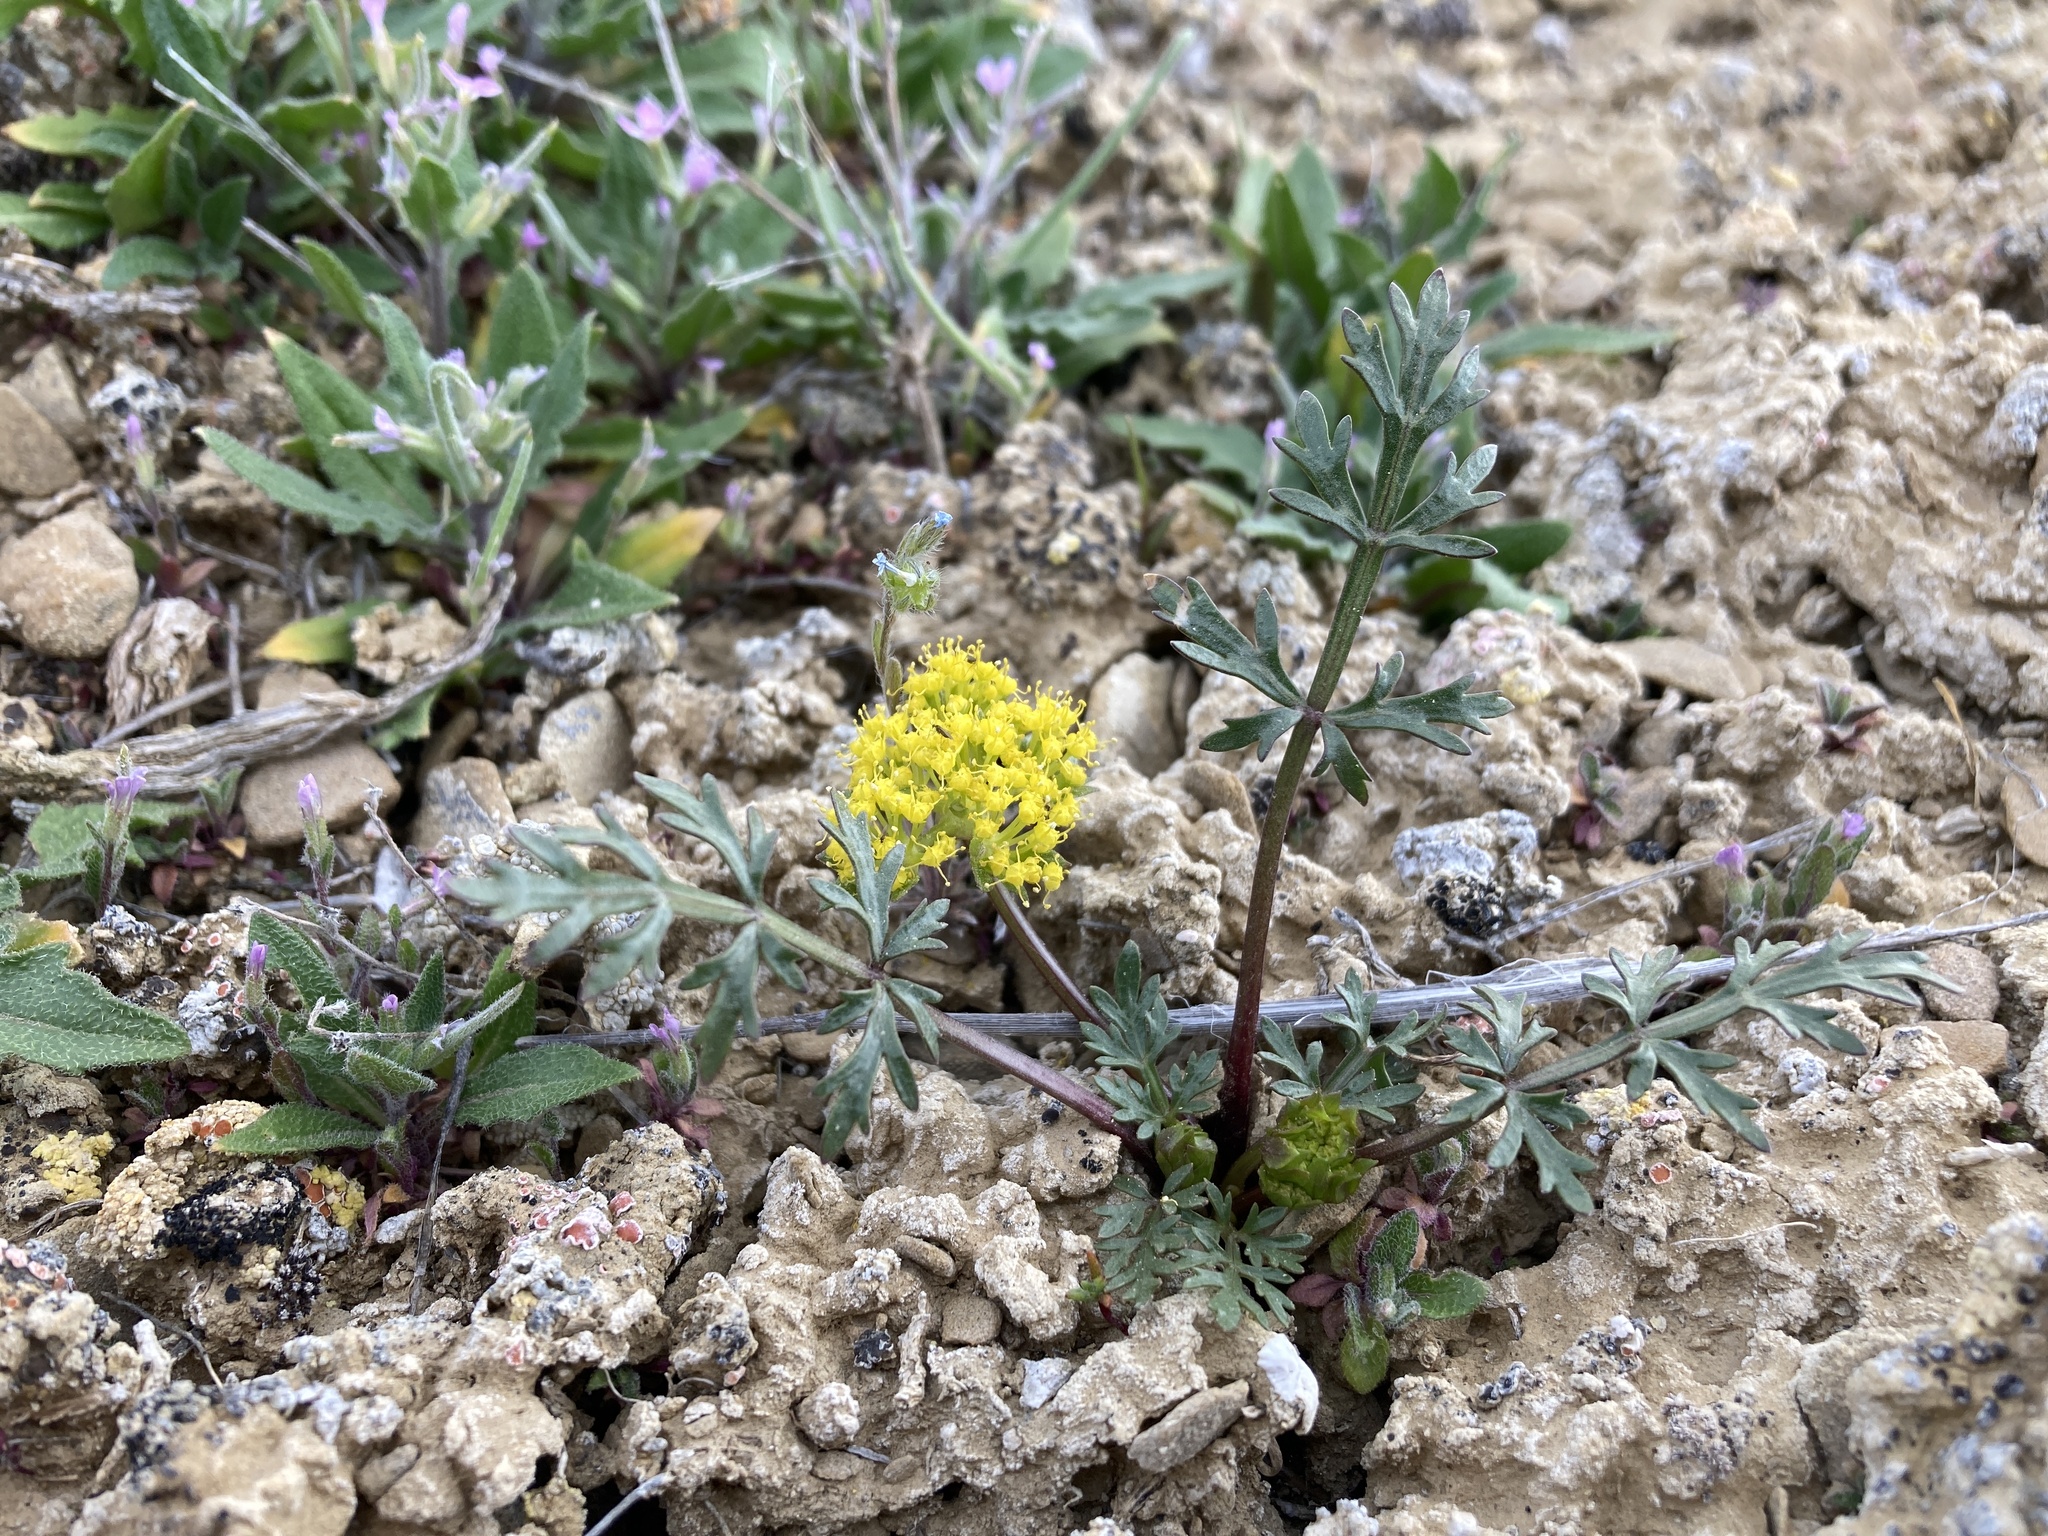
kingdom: Plantae
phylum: Tracheophyta
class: Magnoliopsida
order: Apiales
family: Apiaceae
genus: Cymopterus
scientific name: Cymopterus glomeratus
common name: Plains spring parsley
